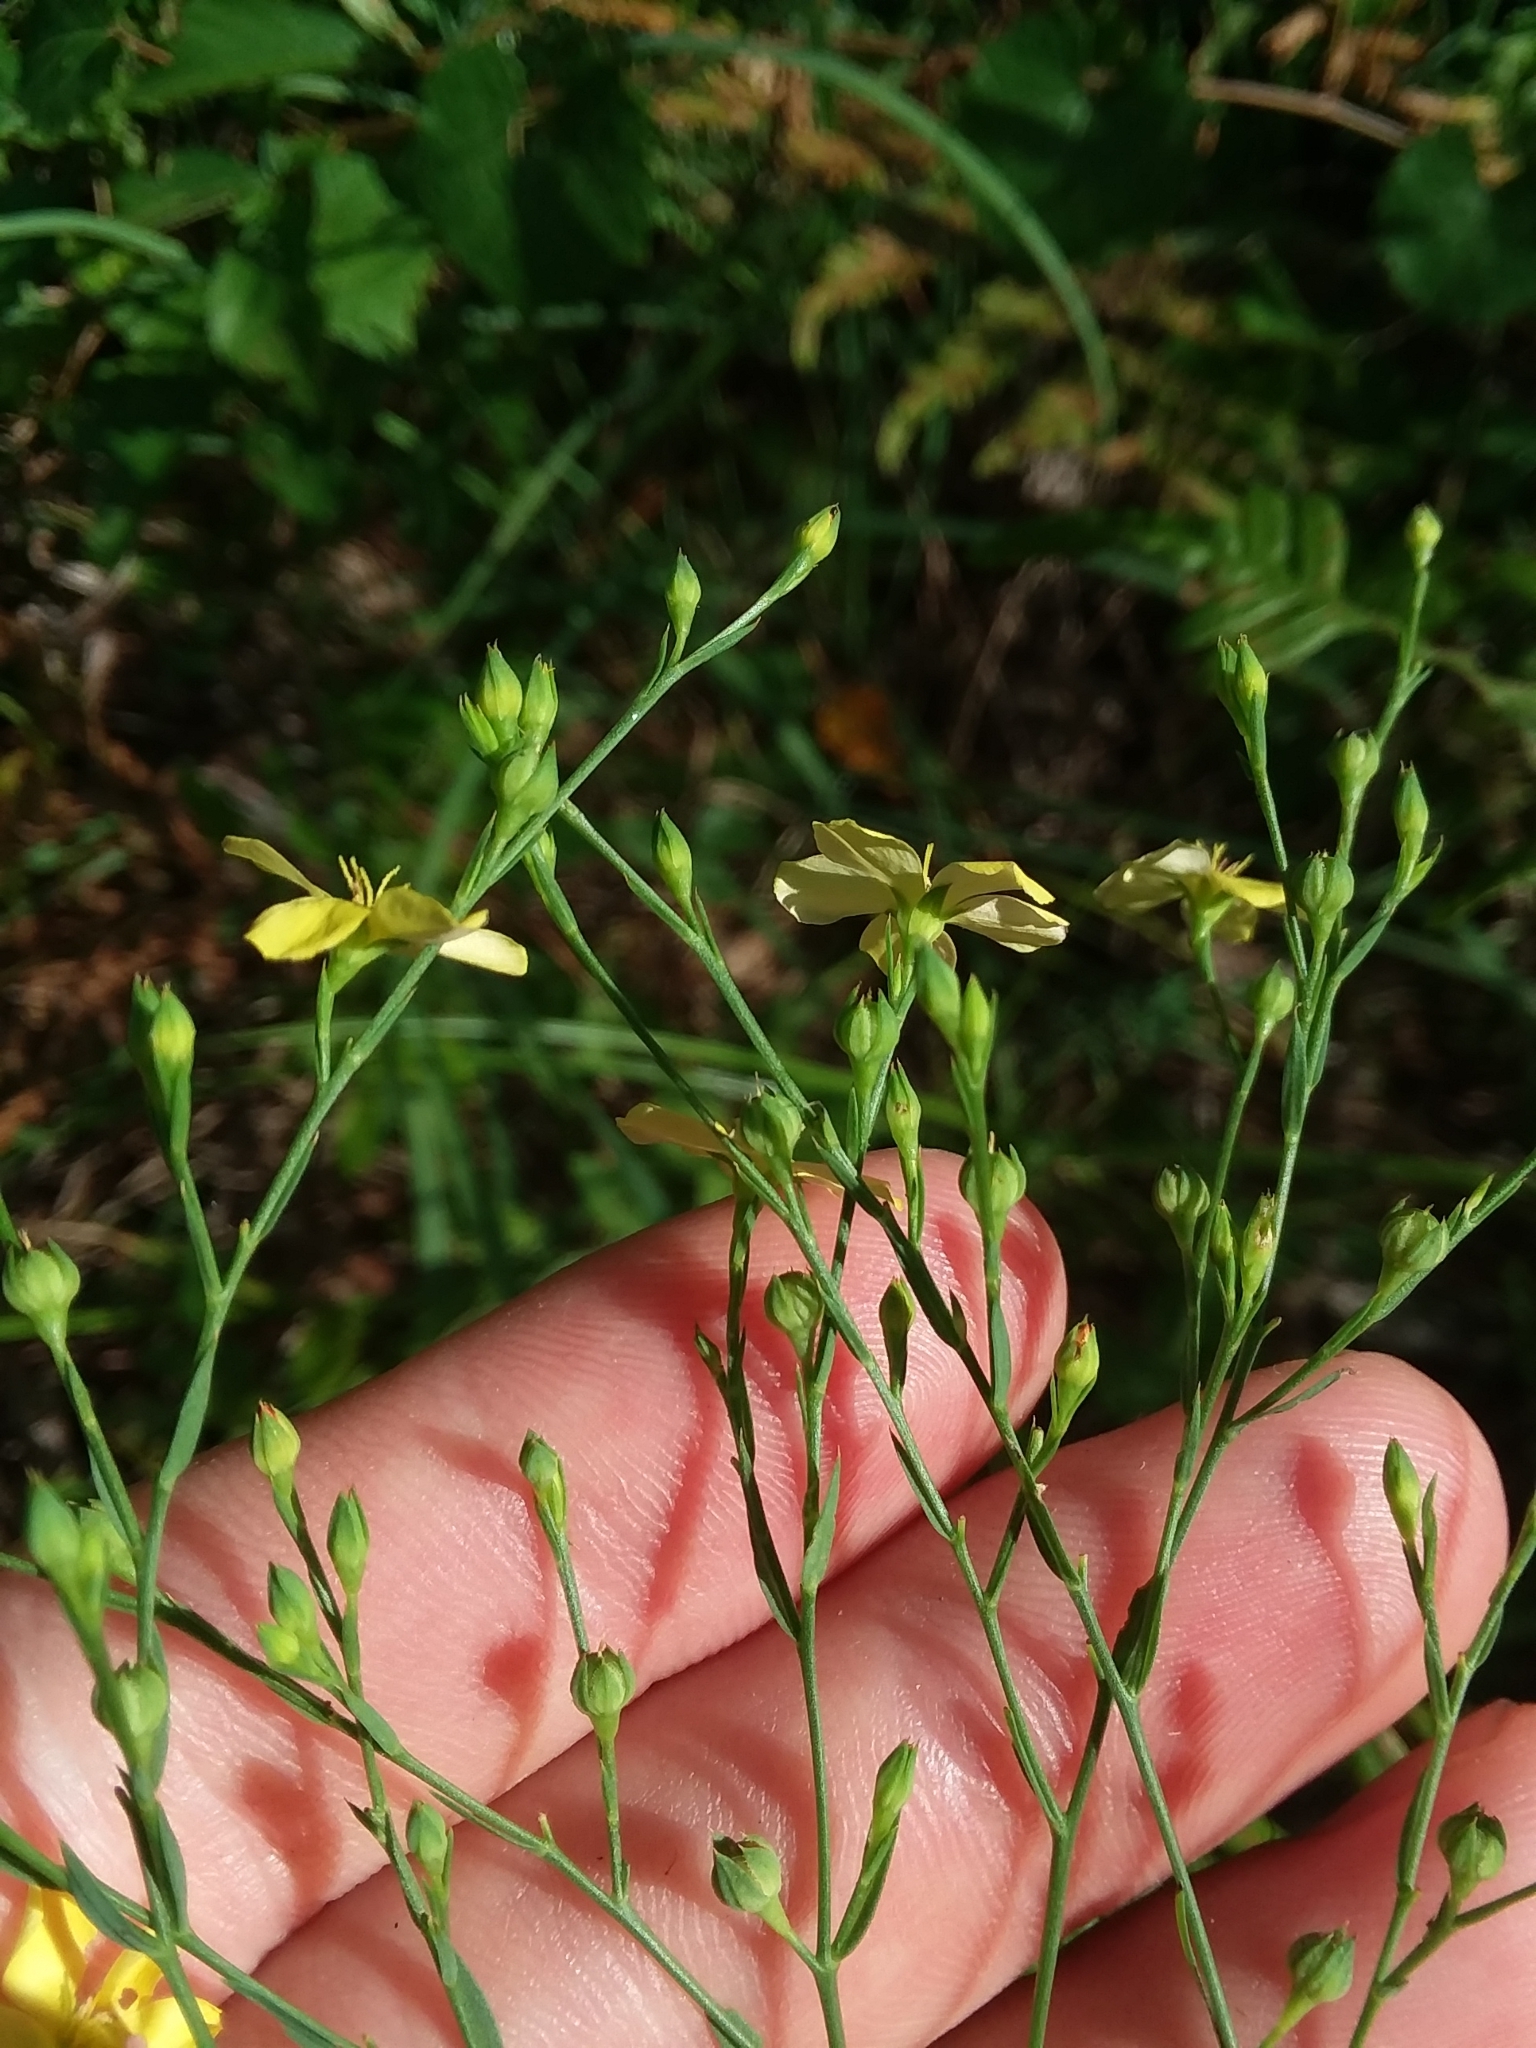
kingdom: Plantae
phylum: Tracheophyta
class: Magnoliopsida
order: Malpighiales
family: Linaceae
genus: Linum
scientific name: Linum medium
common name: Stiff yellow flax
